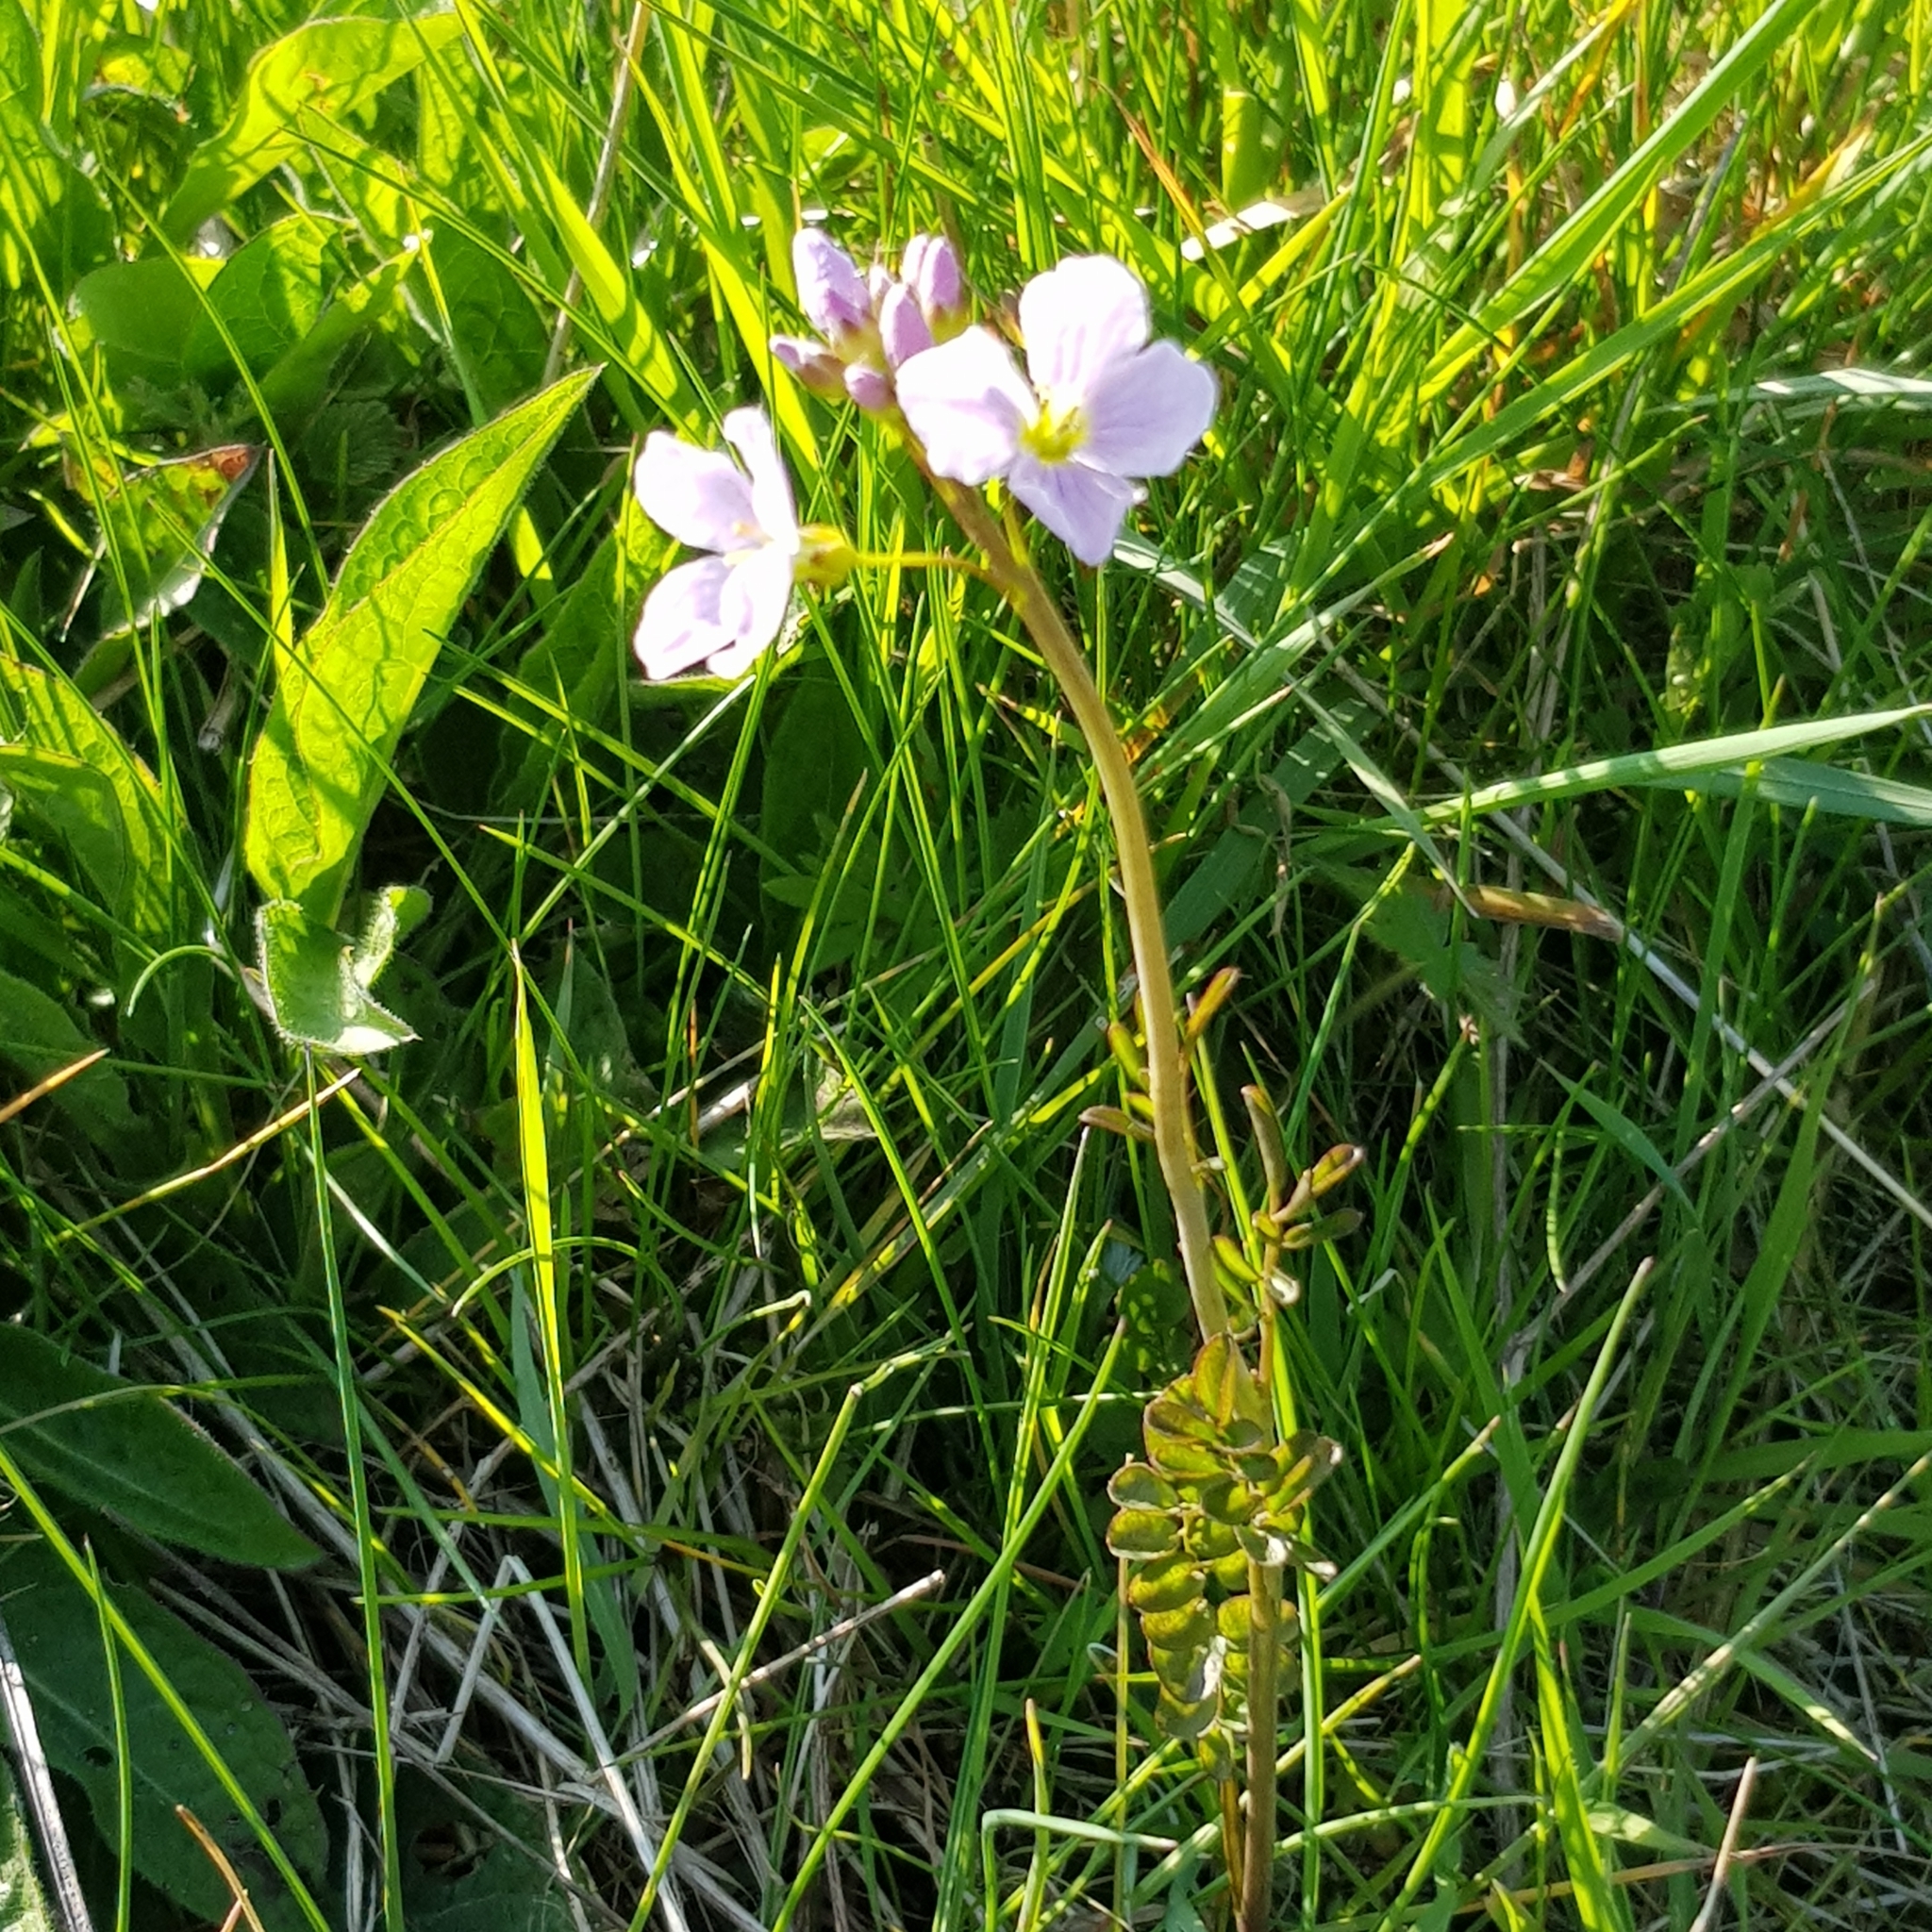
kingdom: Plantae
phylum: Tracheophyta
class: Magnoliopsida
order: Brassicales
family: Brassicaceae
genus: Cardamine
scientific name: Cardamine pratensis
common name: Cuckoo flower
